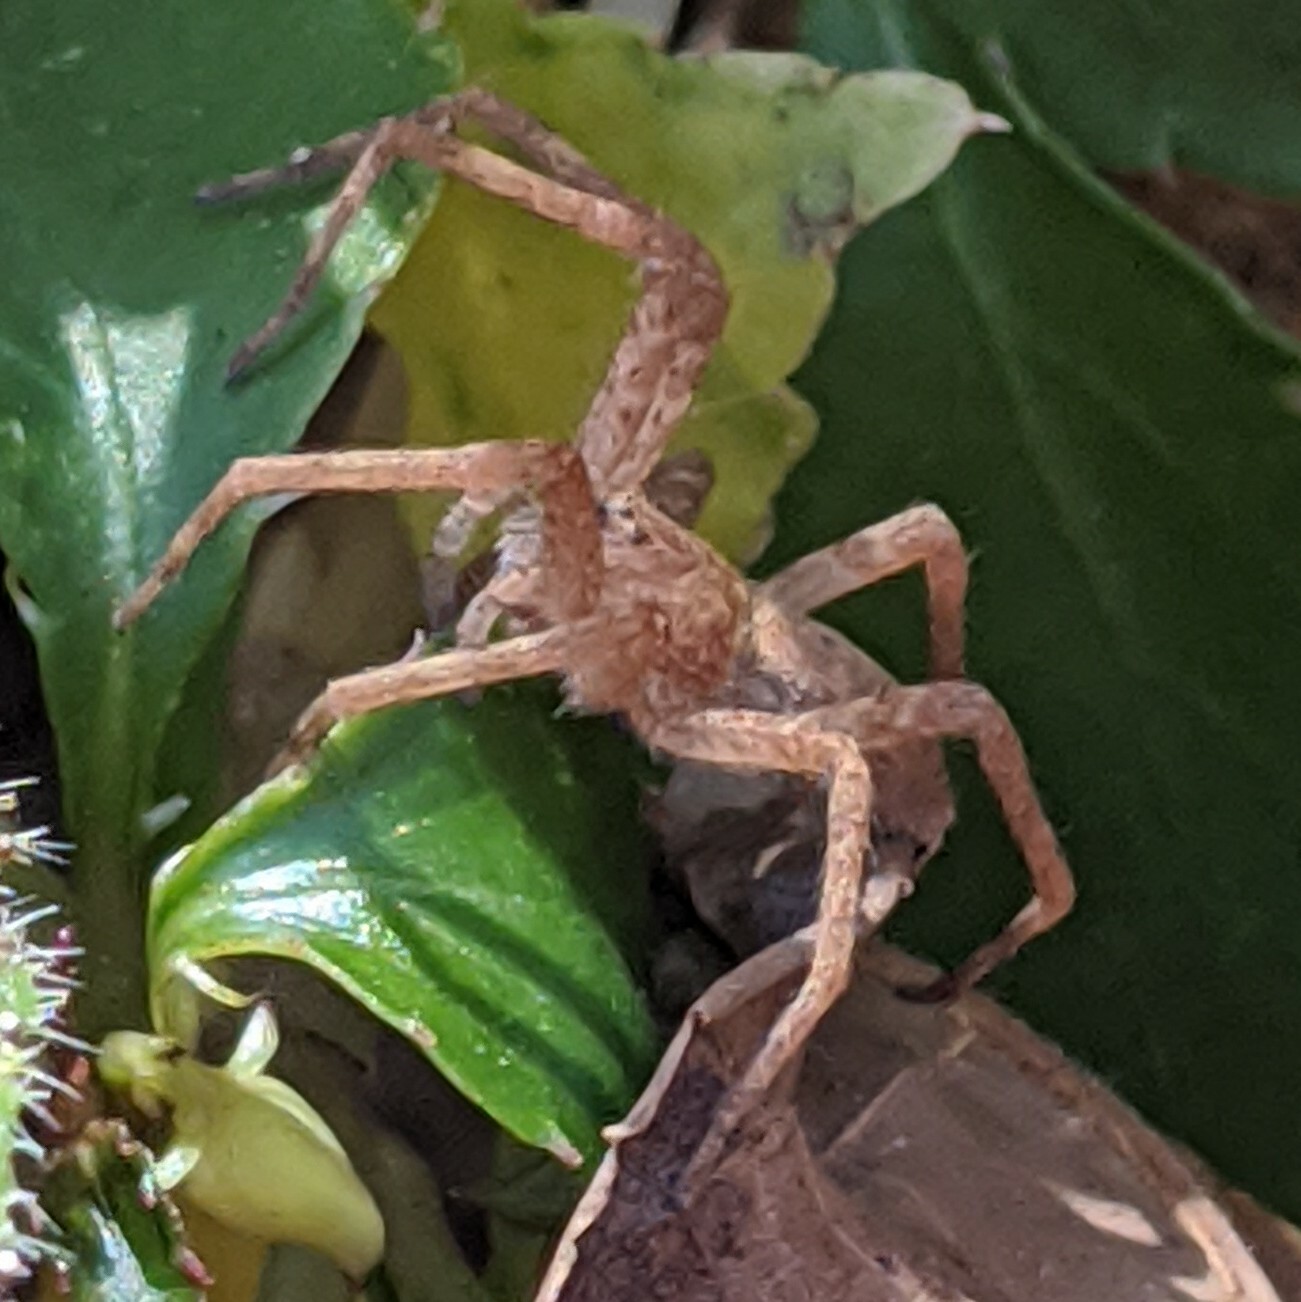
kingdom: Animalia
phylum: Arthropoda
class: Arachnida
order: Araneae
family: Pisauridae
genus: Pisaurina
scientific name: Pisaurina mira
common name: American nursery web spider
